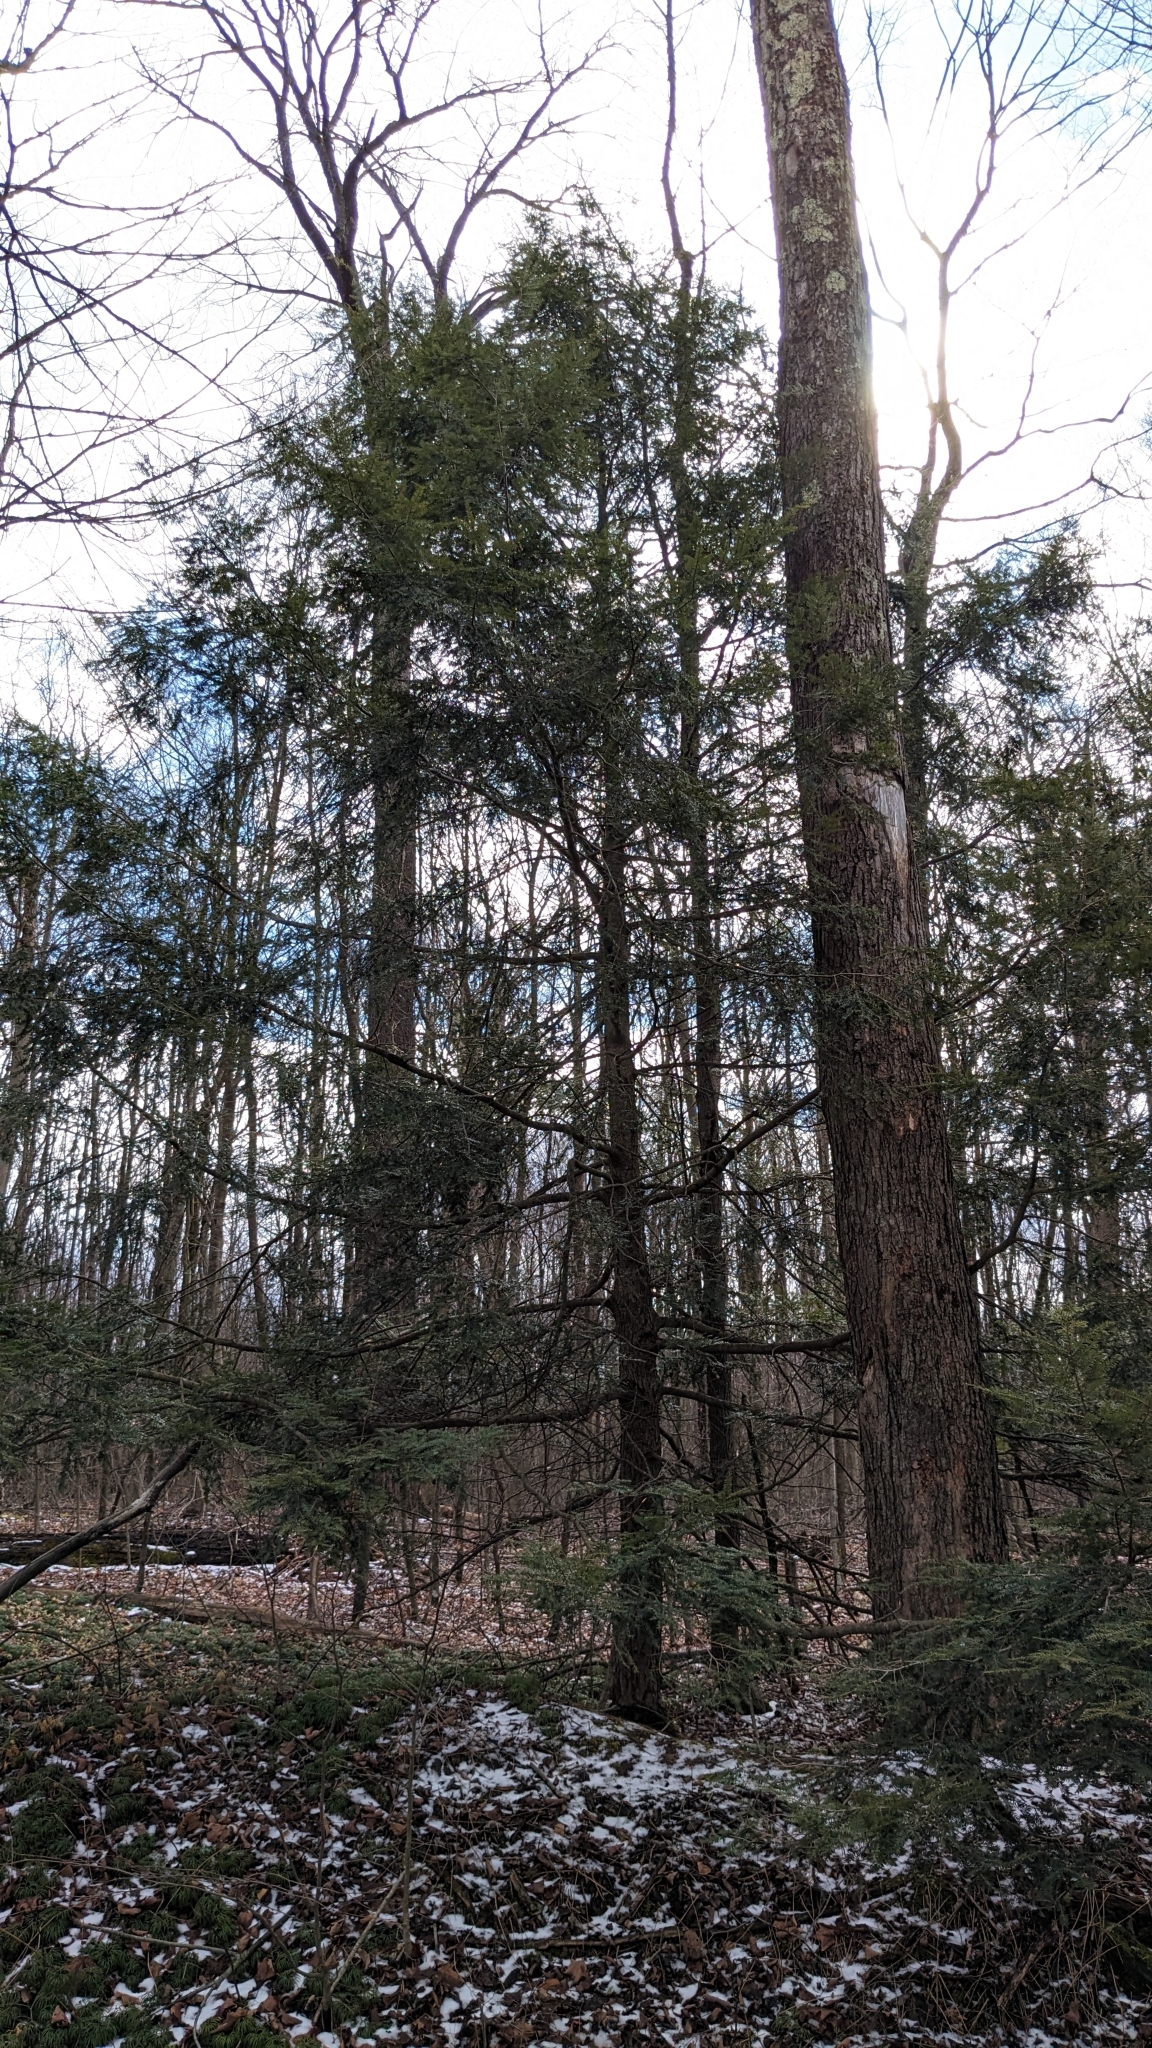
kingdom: Plantae
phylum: Tracheophyta
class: Pinopsida
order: Pinales
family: Pinaceae
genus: Tsuga
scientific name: Tsuga canadensis
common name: Eastern hemlock
